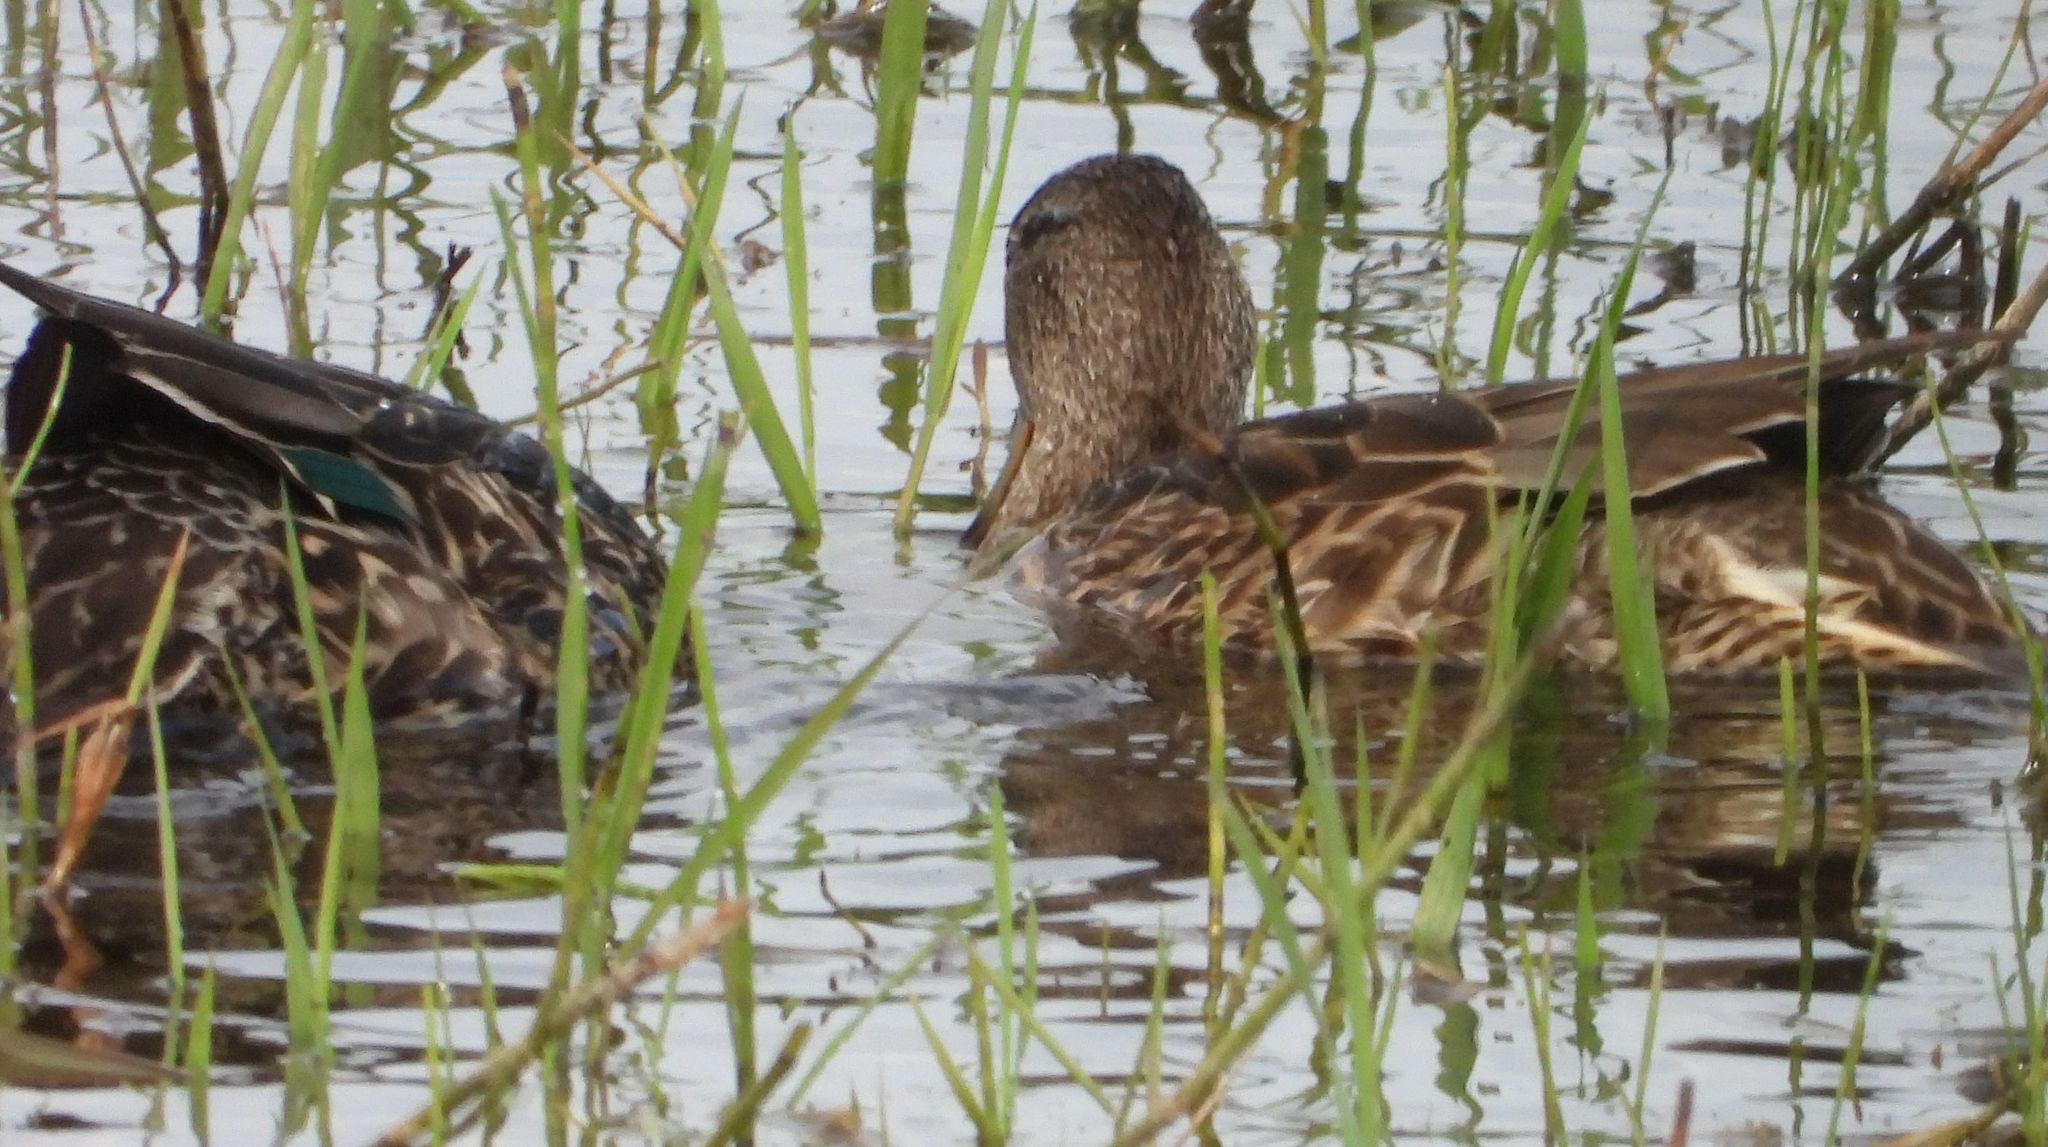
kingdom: Animalia
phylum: Chordata
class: Aves
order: Anseriformes
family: Anatidae
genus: Anas
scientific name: Anas crecca
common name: Eurasian teal
